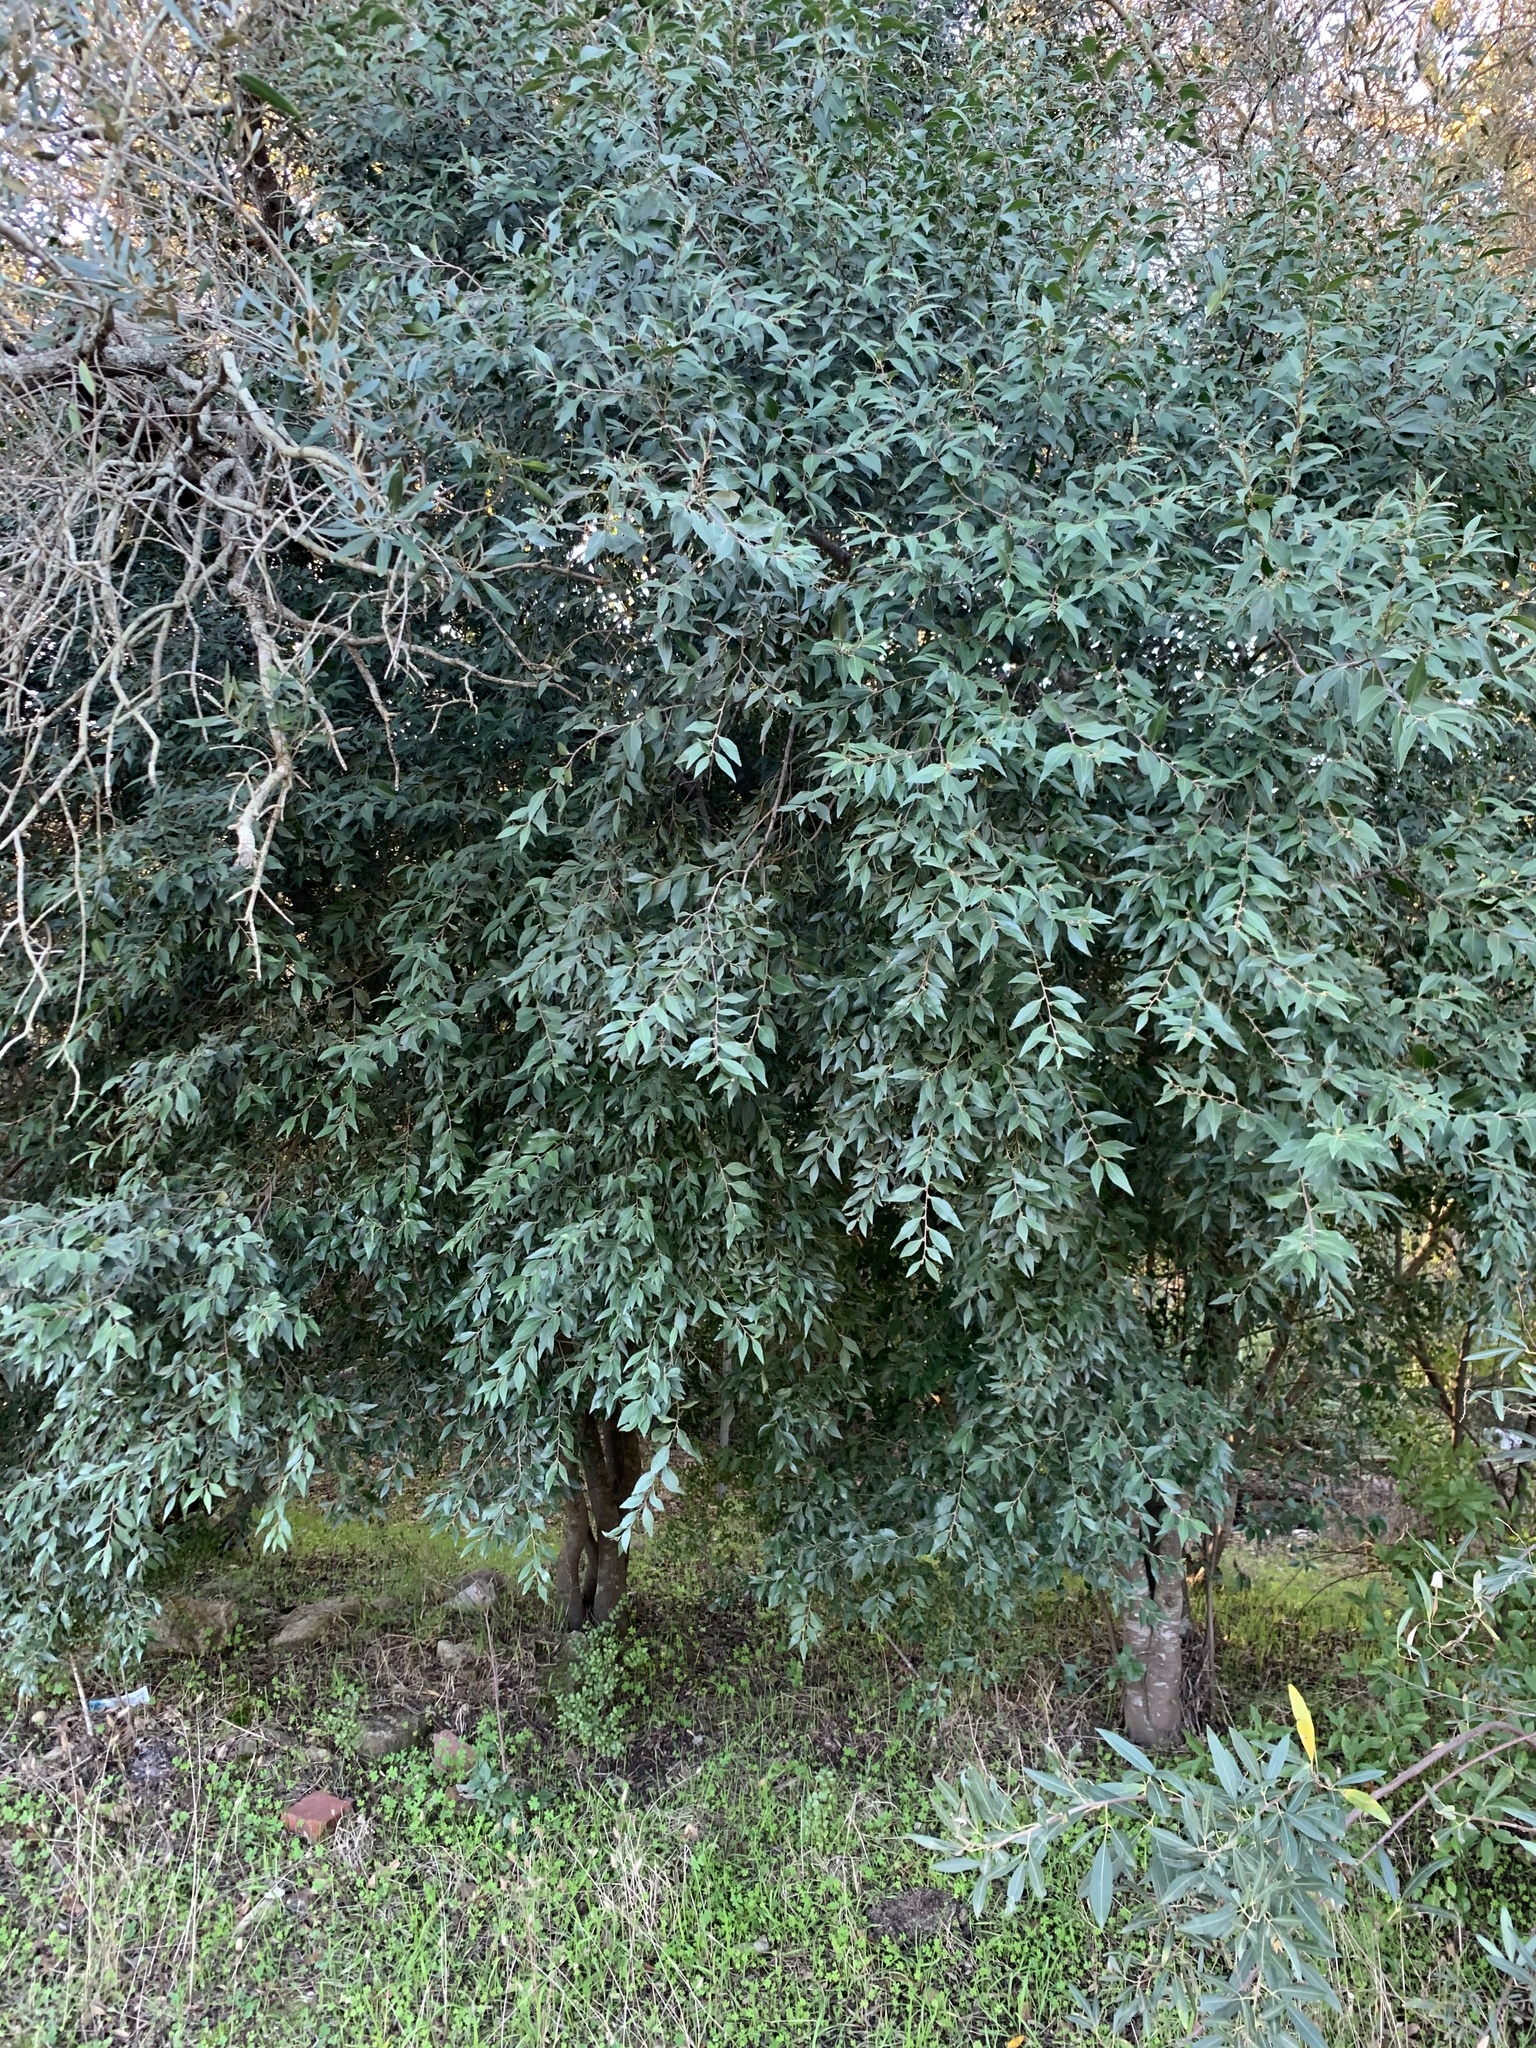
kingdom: Plantae
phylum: Tracheophyta
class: Magnoliopsida
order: Celastrales
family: Celastraceae
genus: Gymnosporia
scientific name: Gymnosporia acuminata
